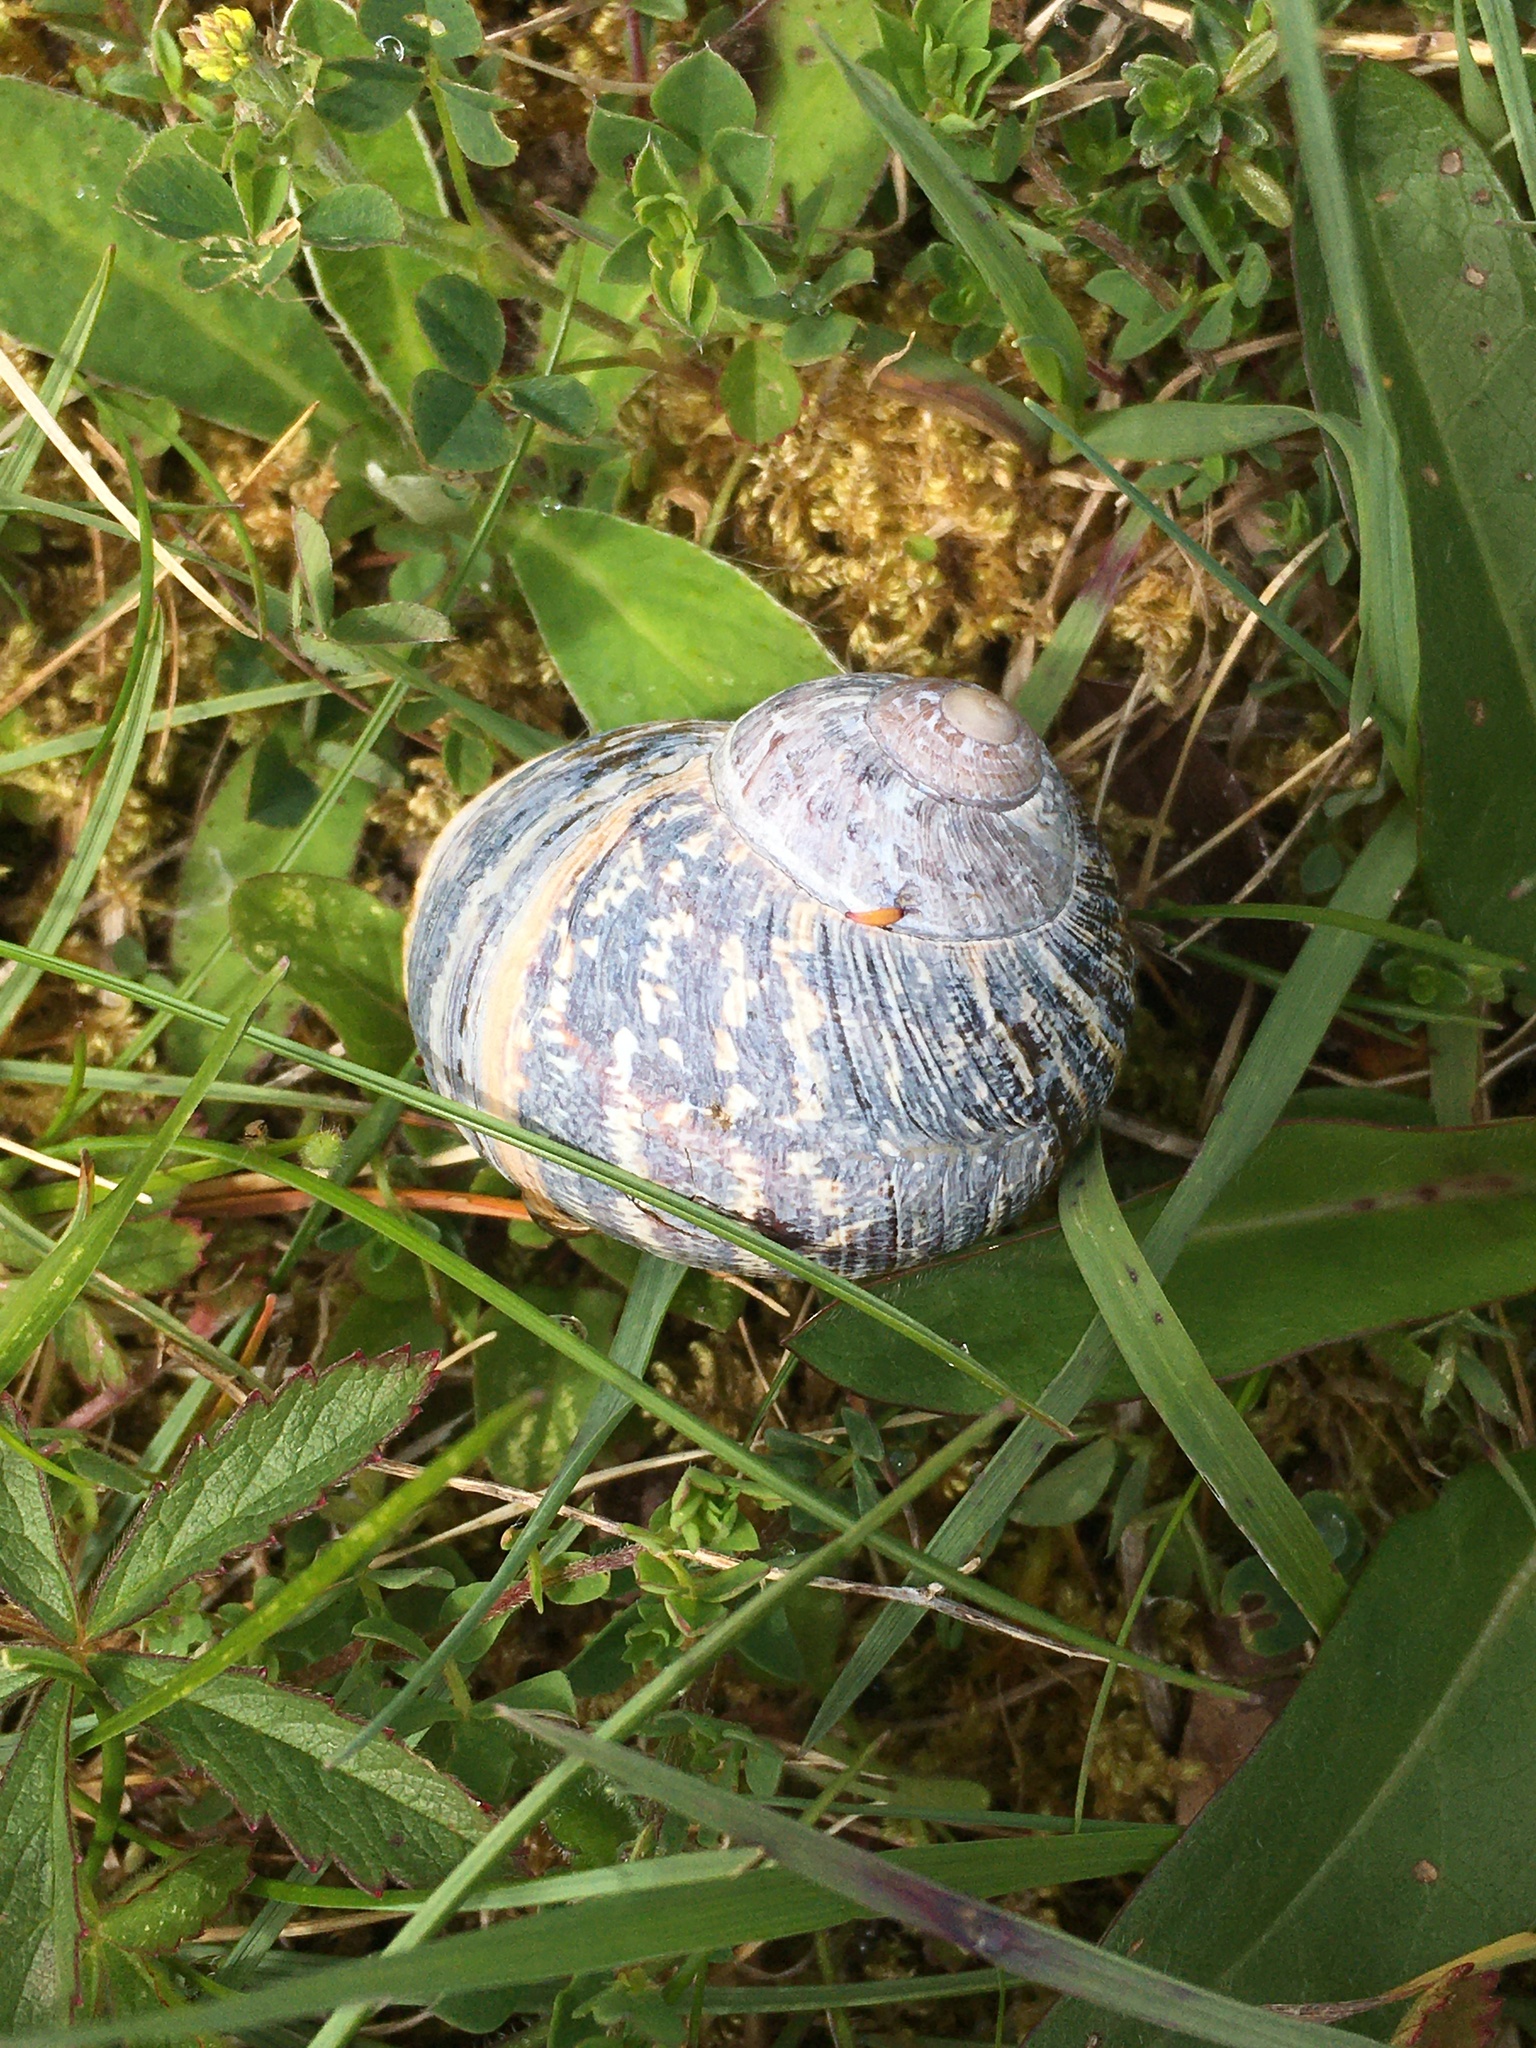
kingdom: Animalia
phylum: Mollusca
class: Gastropoda
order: Stylommatophora
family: Helicidae
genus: Cornu
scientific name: Cornu aspersum
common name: Brown garden snail
